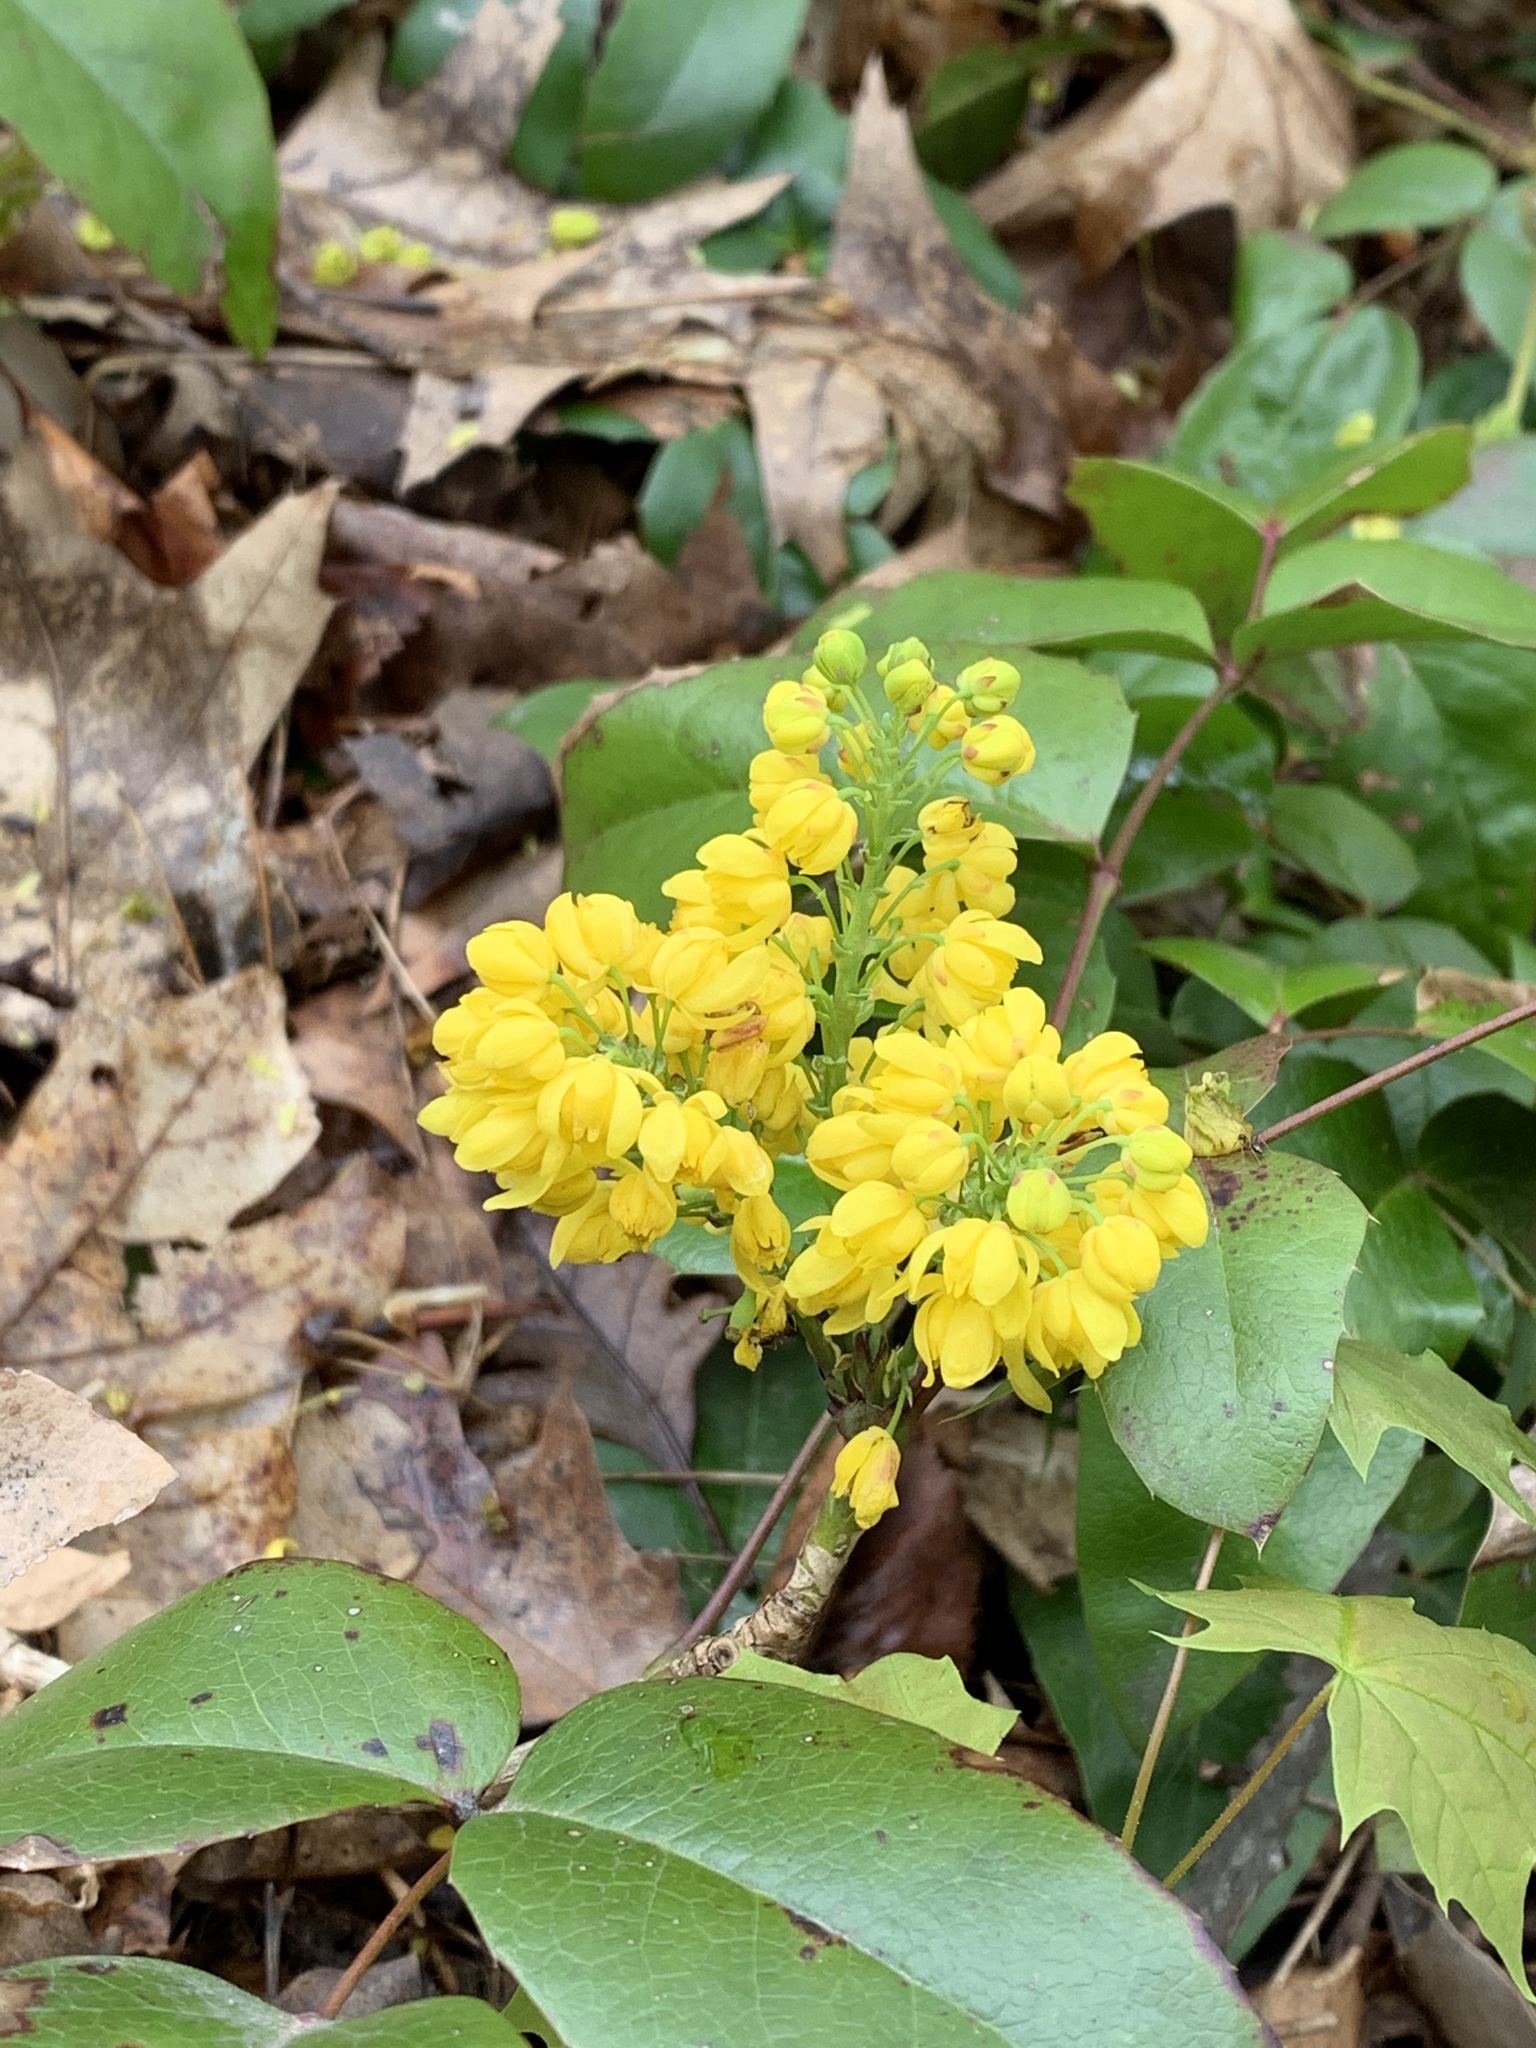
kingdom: Plantae
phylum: Tracheophyta
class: Magnoliopsida
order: Ranunculales
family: Berberidaceae
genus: Mahonia
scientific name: Mahonia aquifolium
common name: Oregon-grape
